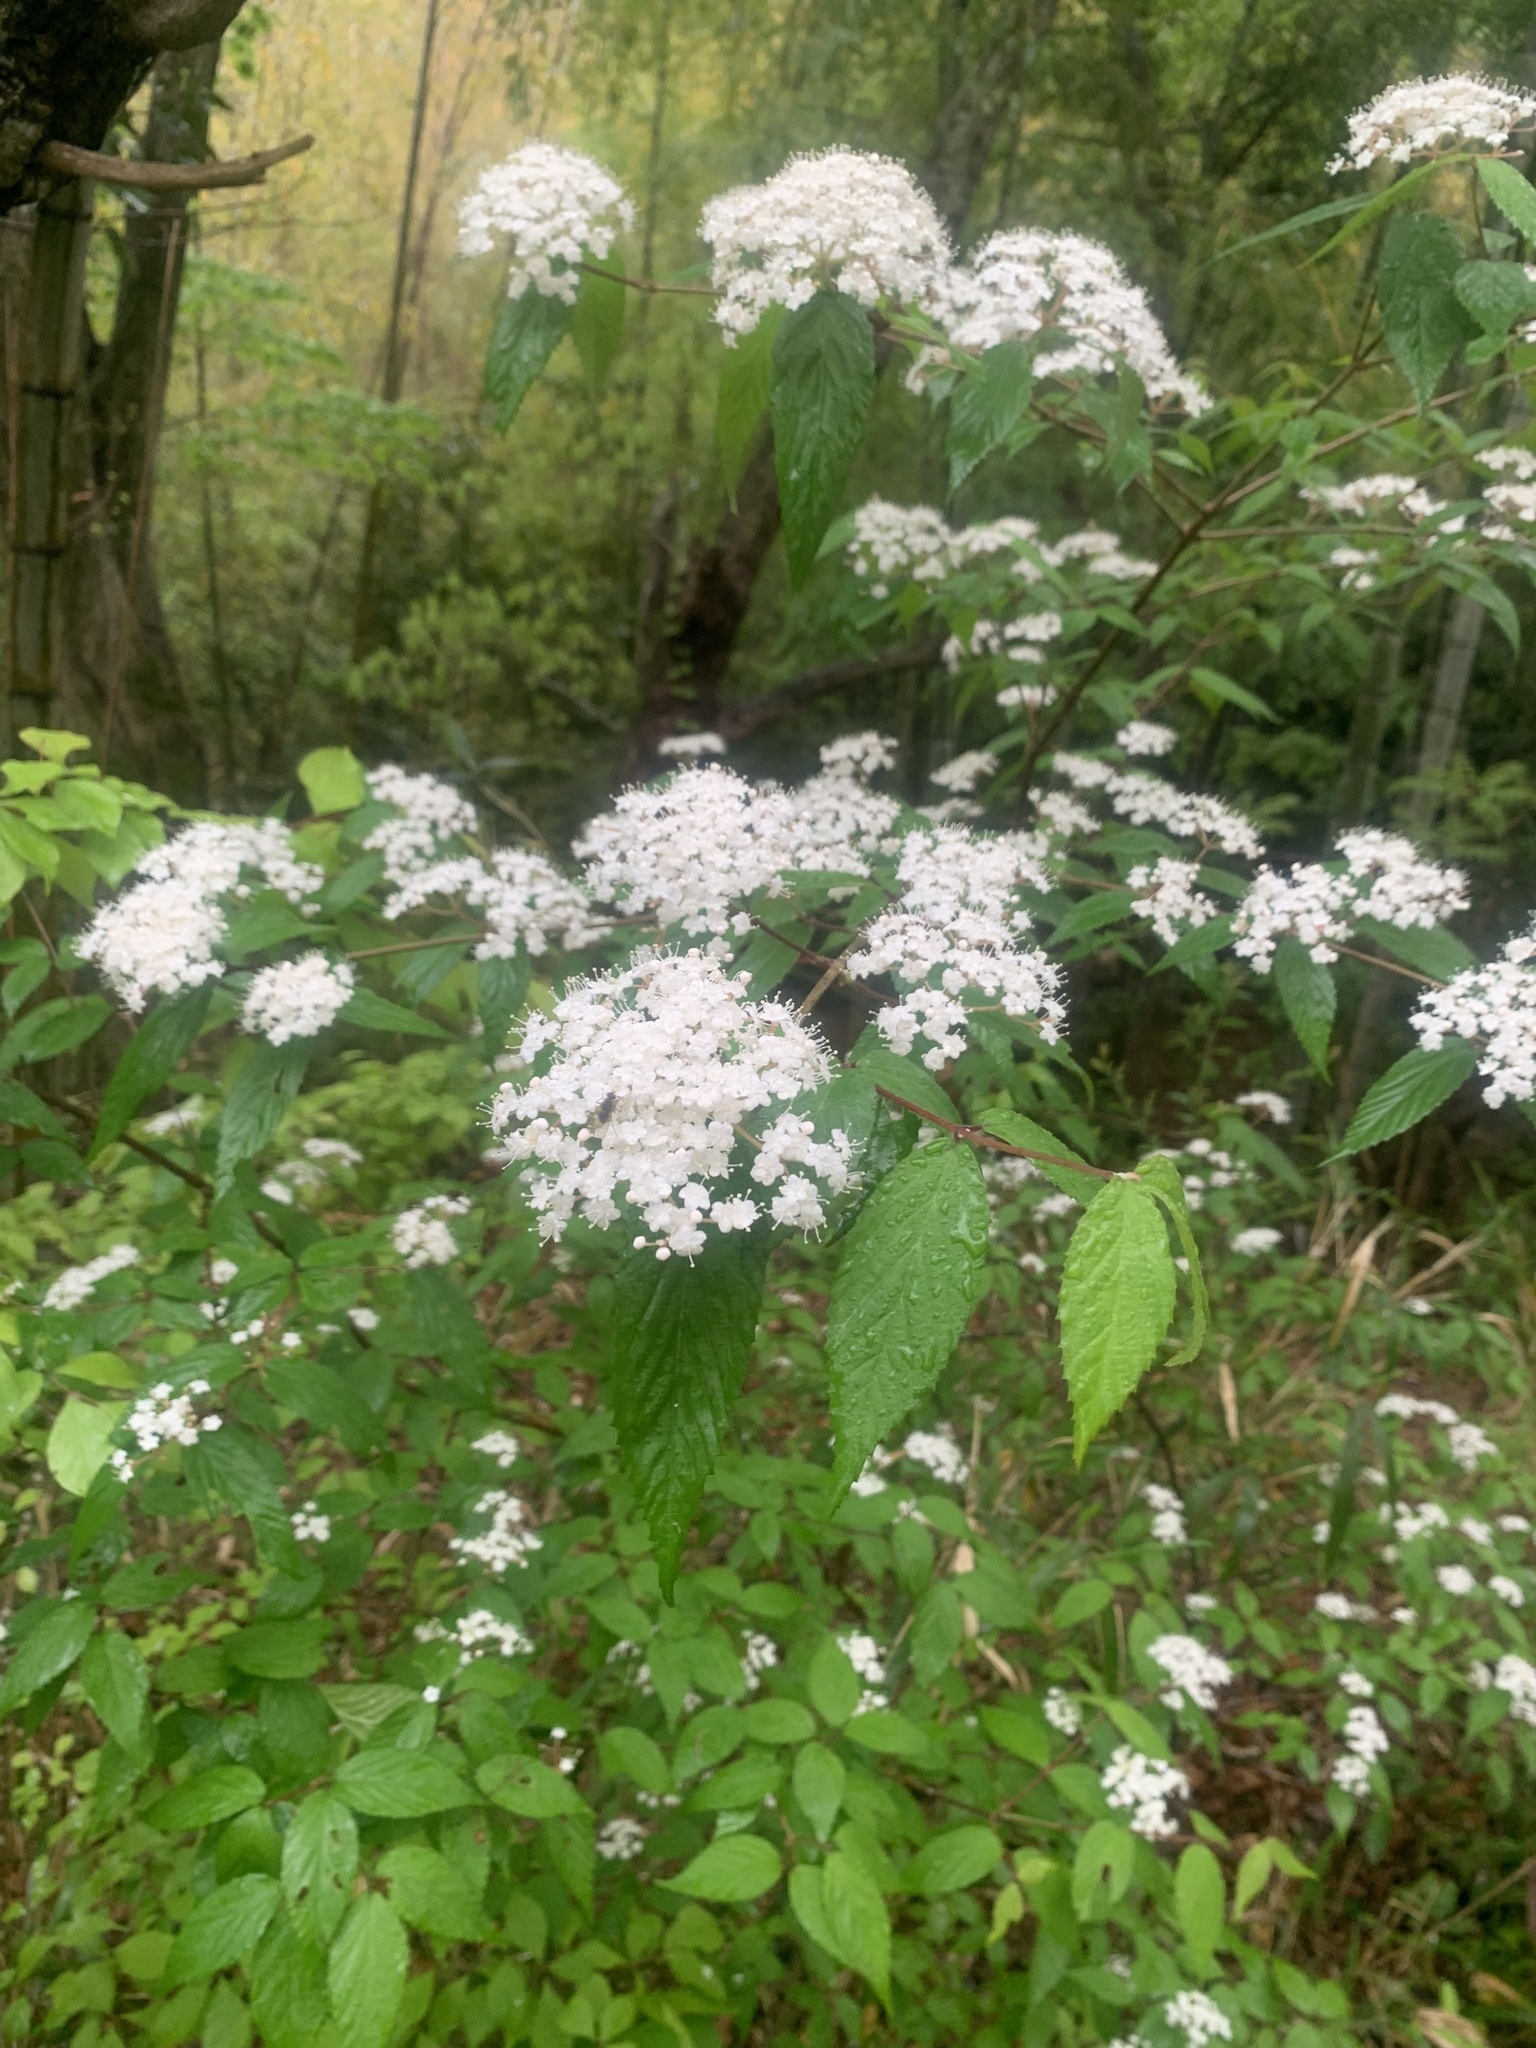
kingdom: Plantae
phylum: Tracheophyta
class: Magnoliopsida
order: Dipsacales
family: Viburnaceae
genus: Viburnum
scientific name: Viburnum erosum
